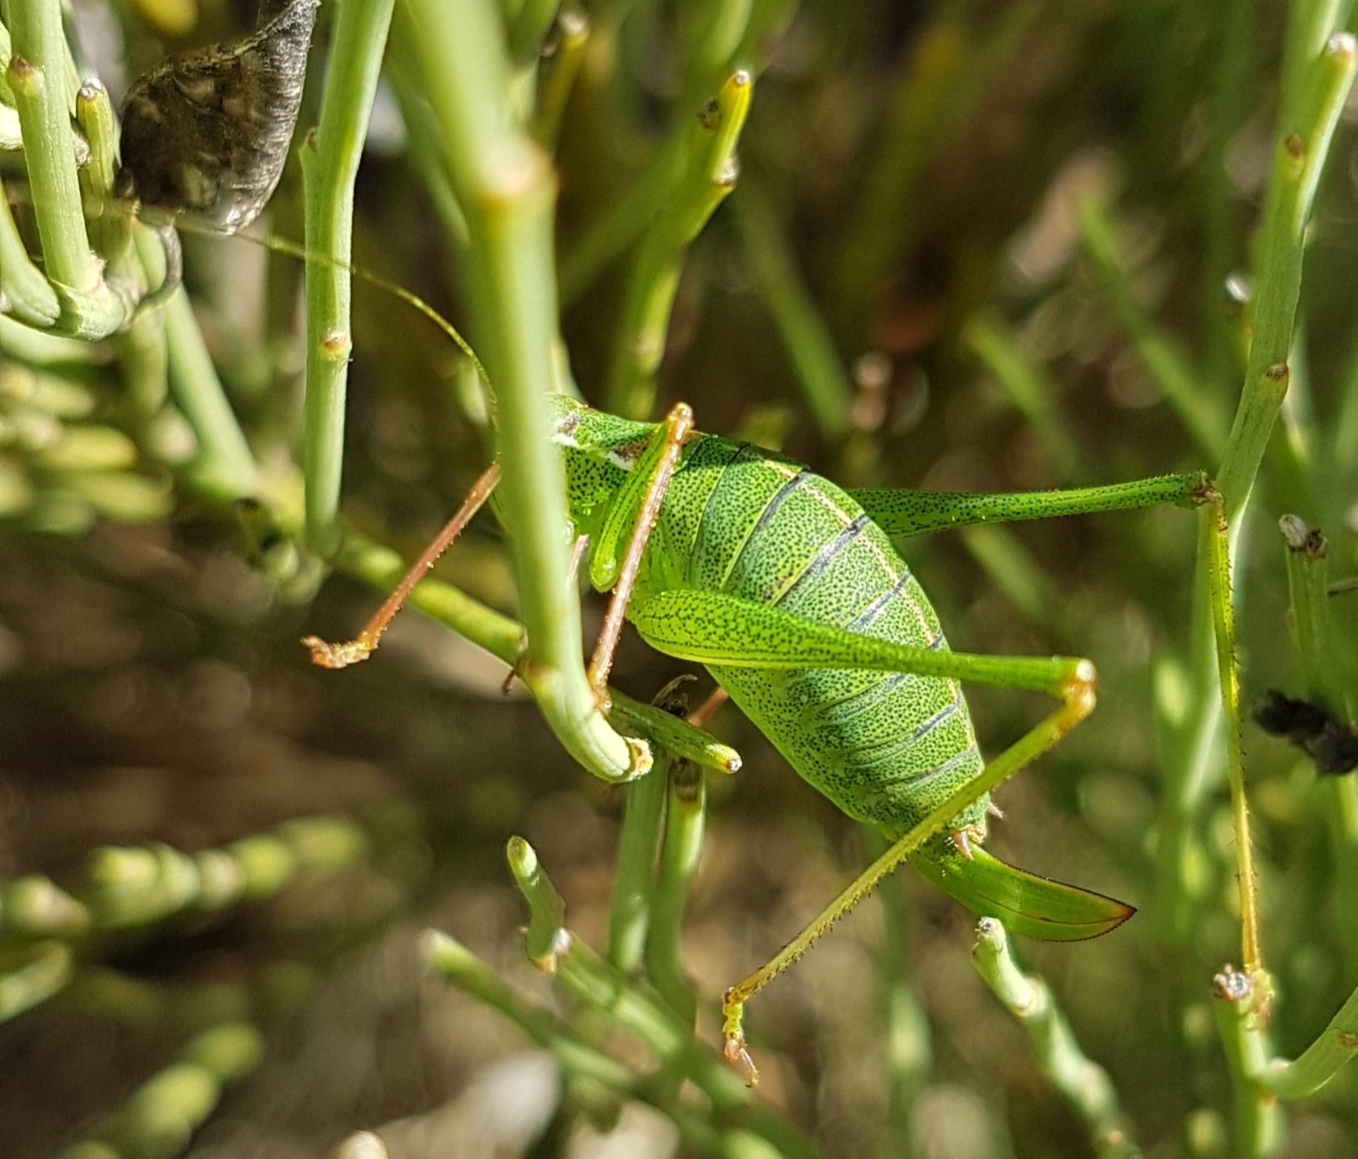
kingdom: Animalia
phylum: Arthropoda
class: Insecta
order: Orthoptera
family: Tettigoniidae
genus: Leptophyes
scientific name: Leptophyes punctatissima
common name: Speckled bush-cricket
